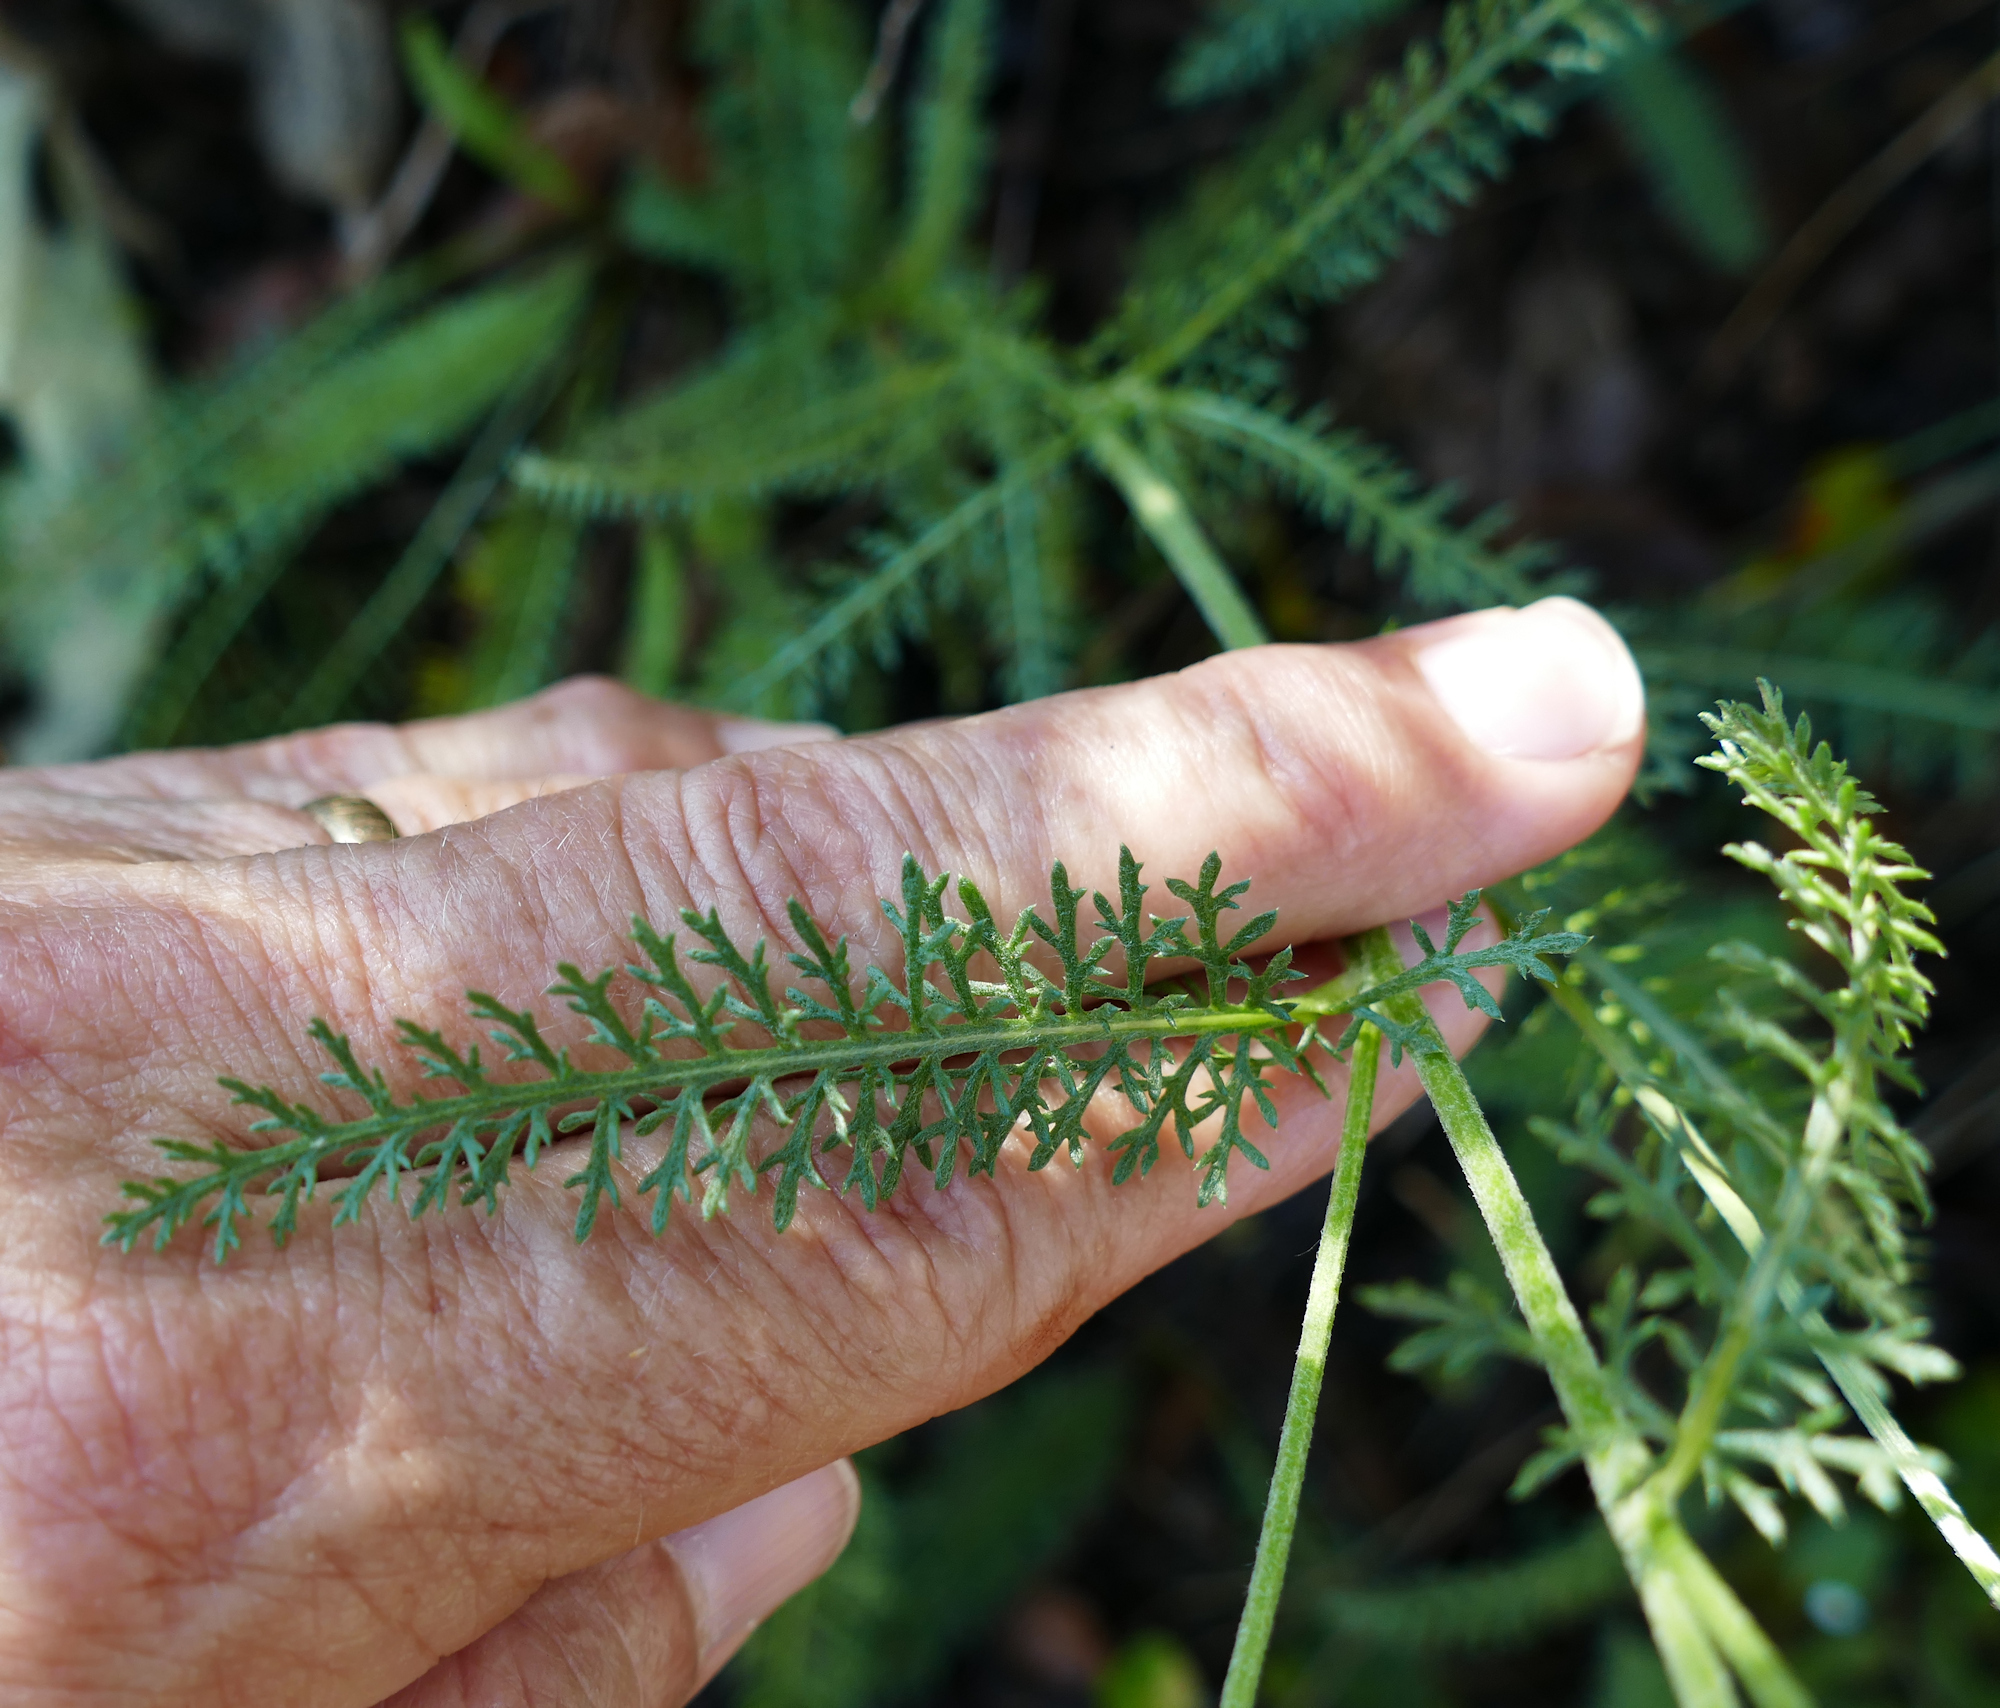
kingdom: Plantae
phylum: Tracheophyta
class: Magnoliopsida
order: Asterales
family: Asteraceae
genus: Achillea
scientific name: Achillea millefolium
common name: Yarrow
